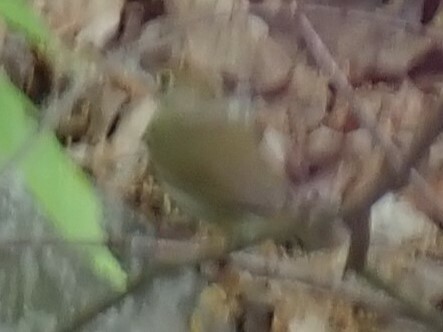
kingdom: Animalia
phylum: Chordata
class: Aves
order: Passeriformes
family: Parulidae
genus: Seiurus
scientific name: Seiurus aurocapilla
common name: Ovenbird
